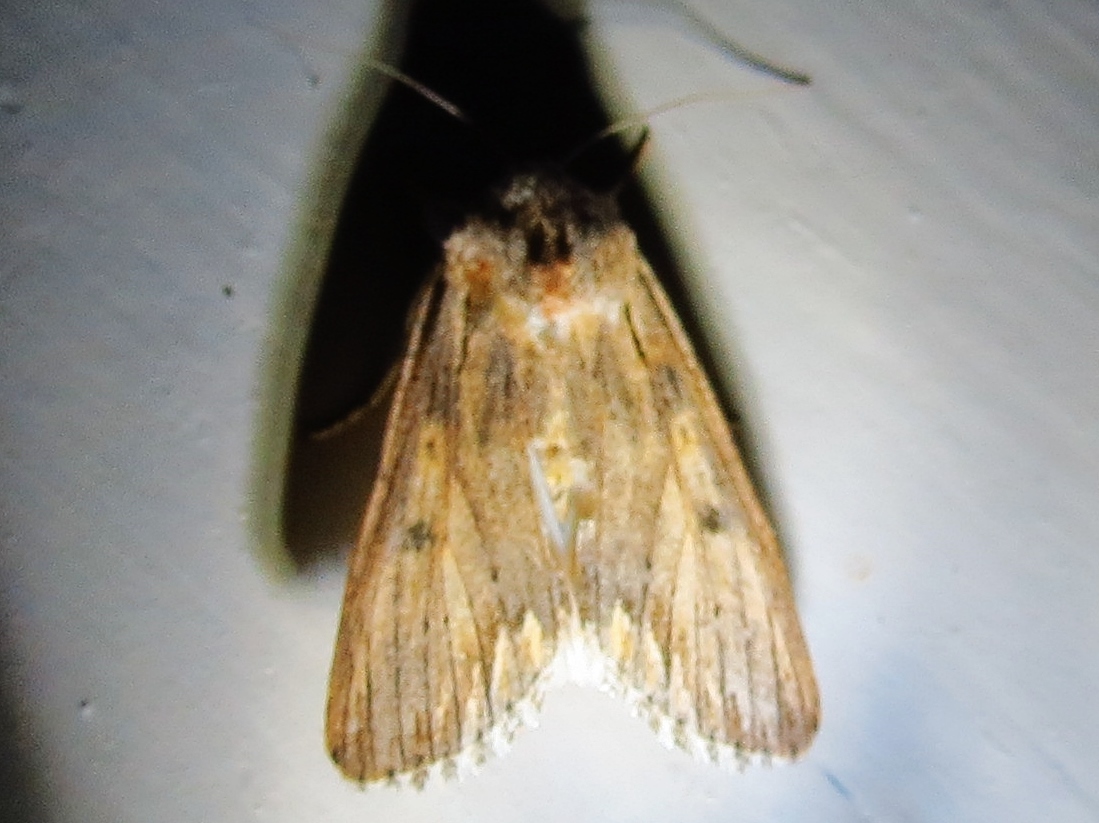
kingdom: Animalia
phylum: Arthropoda
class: Insecta
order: Lepidoptera
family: Noctuidae
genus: Spodoptera
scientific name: Spodoptera albula
